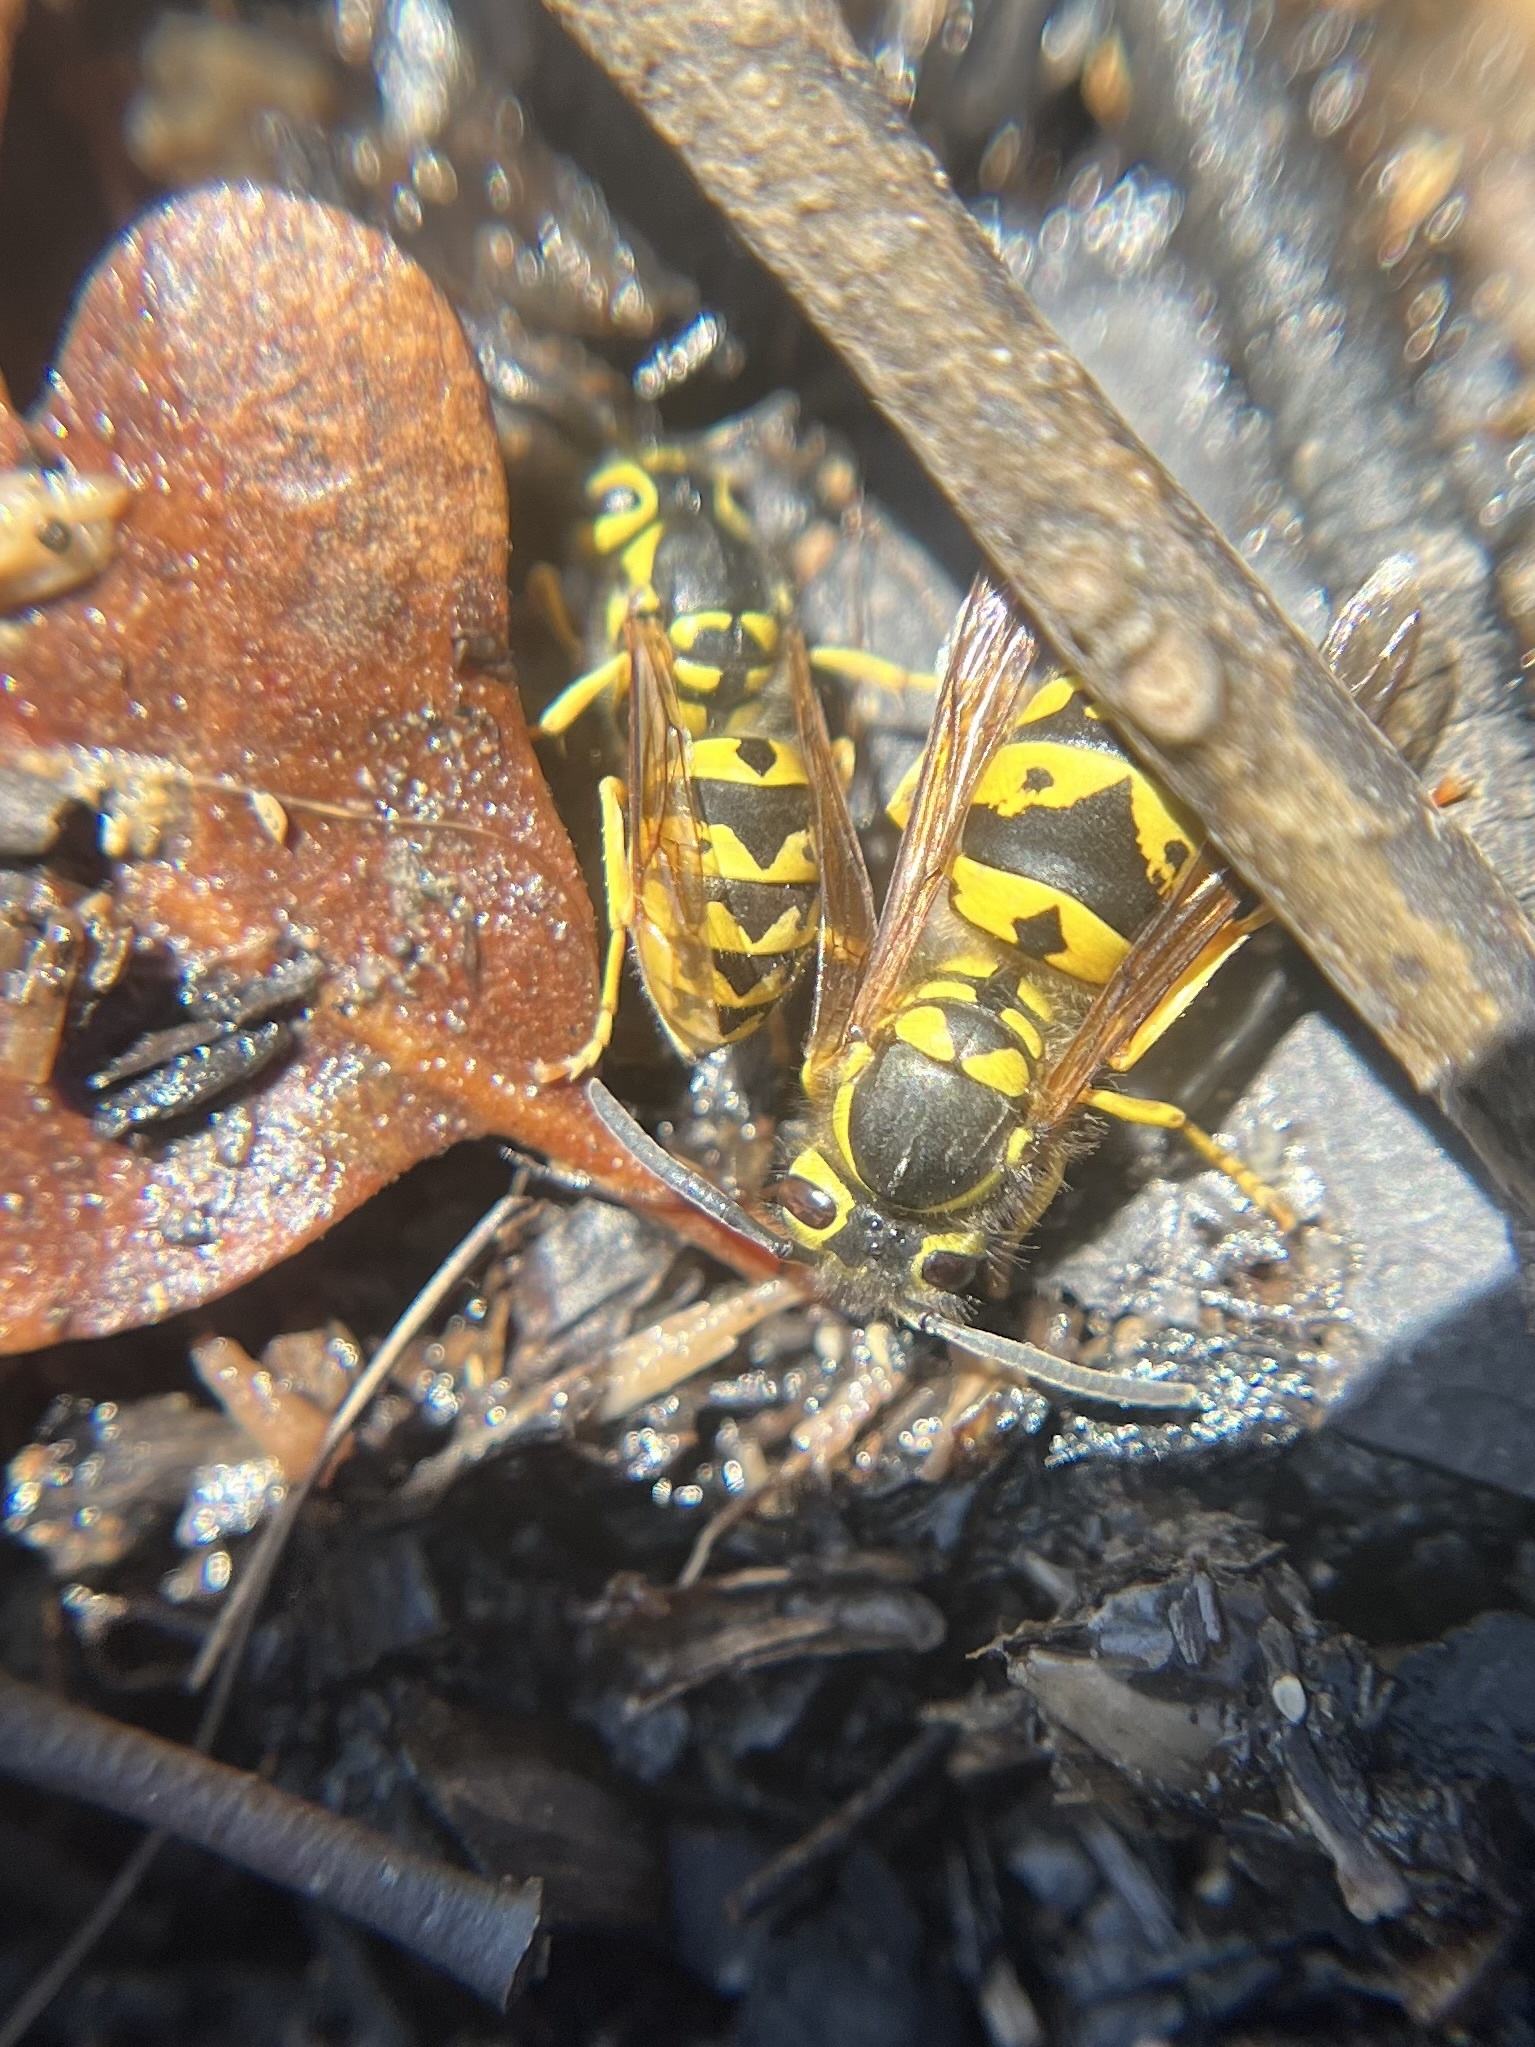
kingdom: Animalia
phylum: Arthropoda
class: Insecta
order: Hymenoptera
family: Vespidae
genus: Vespula
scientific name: Vespula pensylvanica
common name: Western yellowjacket
